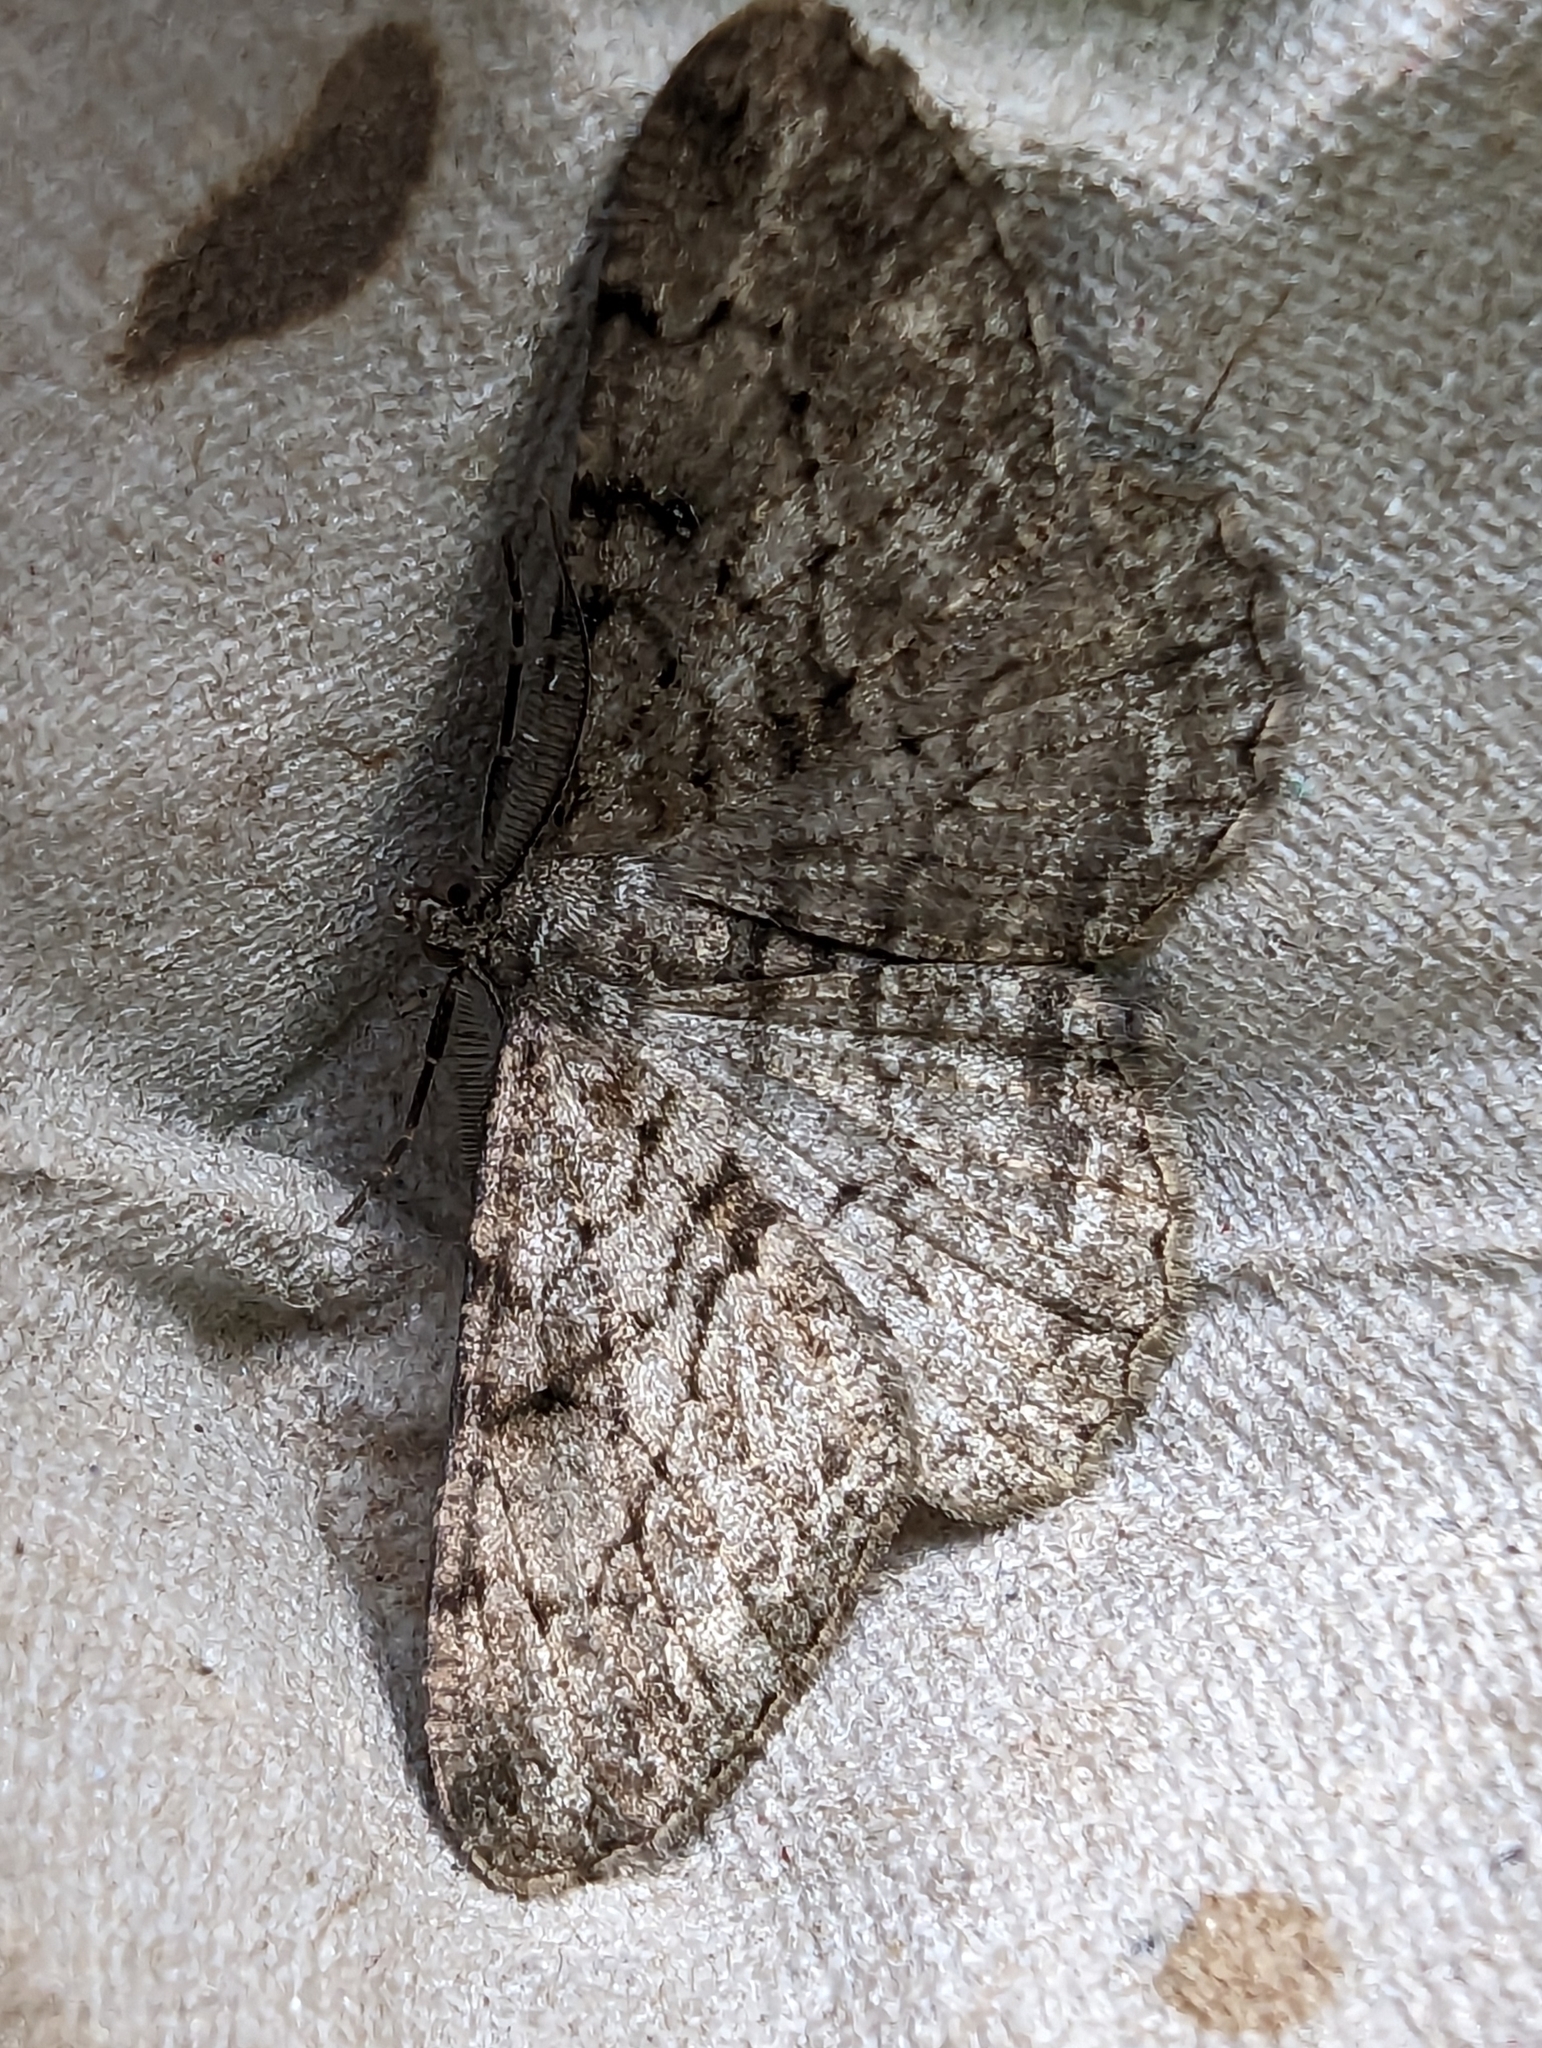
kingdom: Animalia
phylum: Arthropoda
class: Insecta
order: Lepidoptera
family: Geometridae
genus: Peribatodes
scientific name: Peribatodes rhomboidaria
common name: Willow beauty
